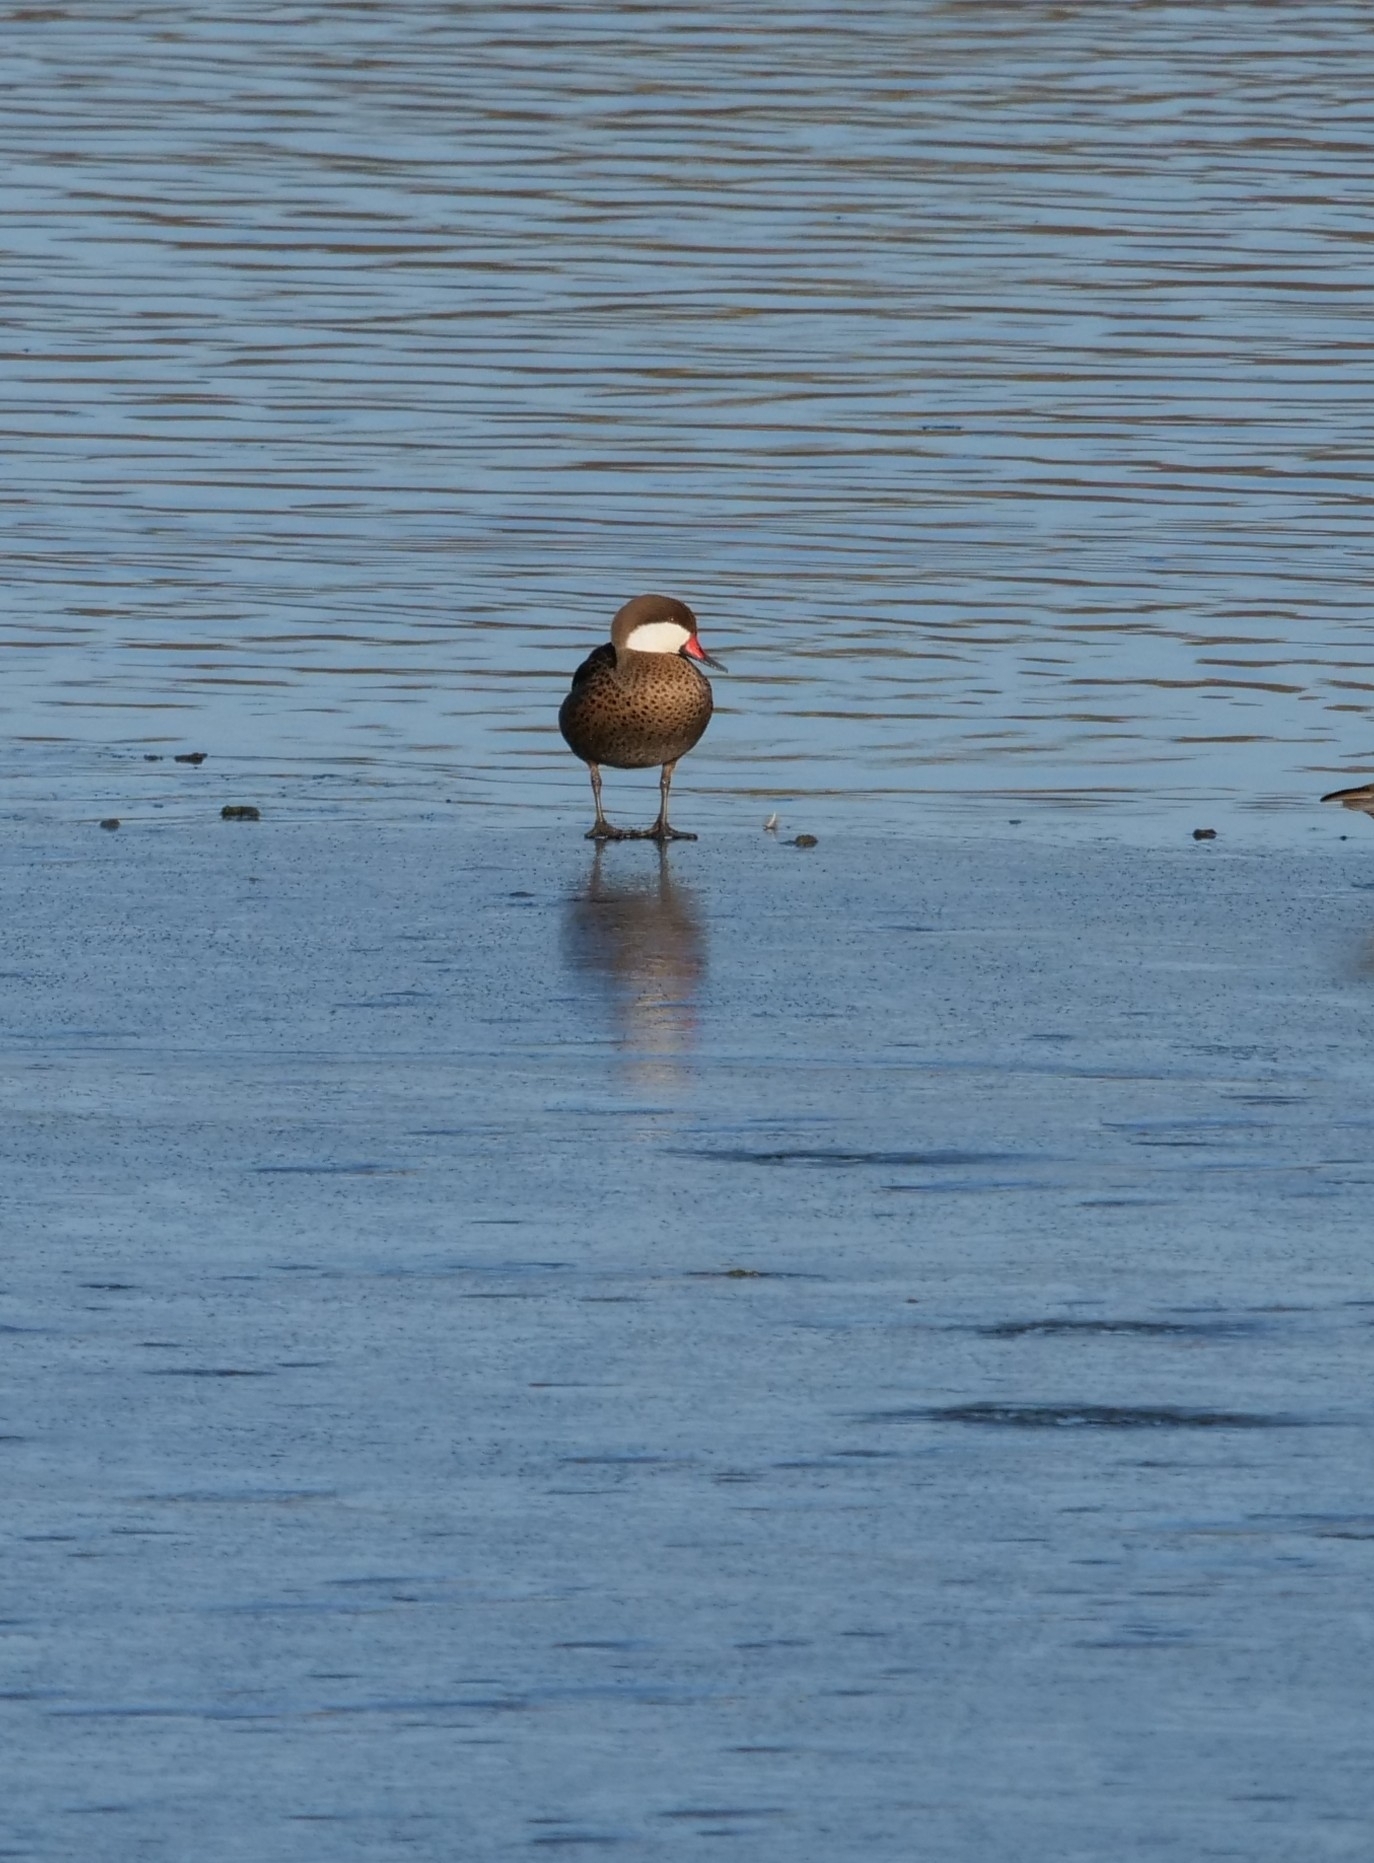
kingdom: Animalia
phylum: Chordata
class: Aves
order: Anseriformes
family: Anatidae
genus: Anas
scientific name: Anas bahamensis
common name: White-cheeked pintail
